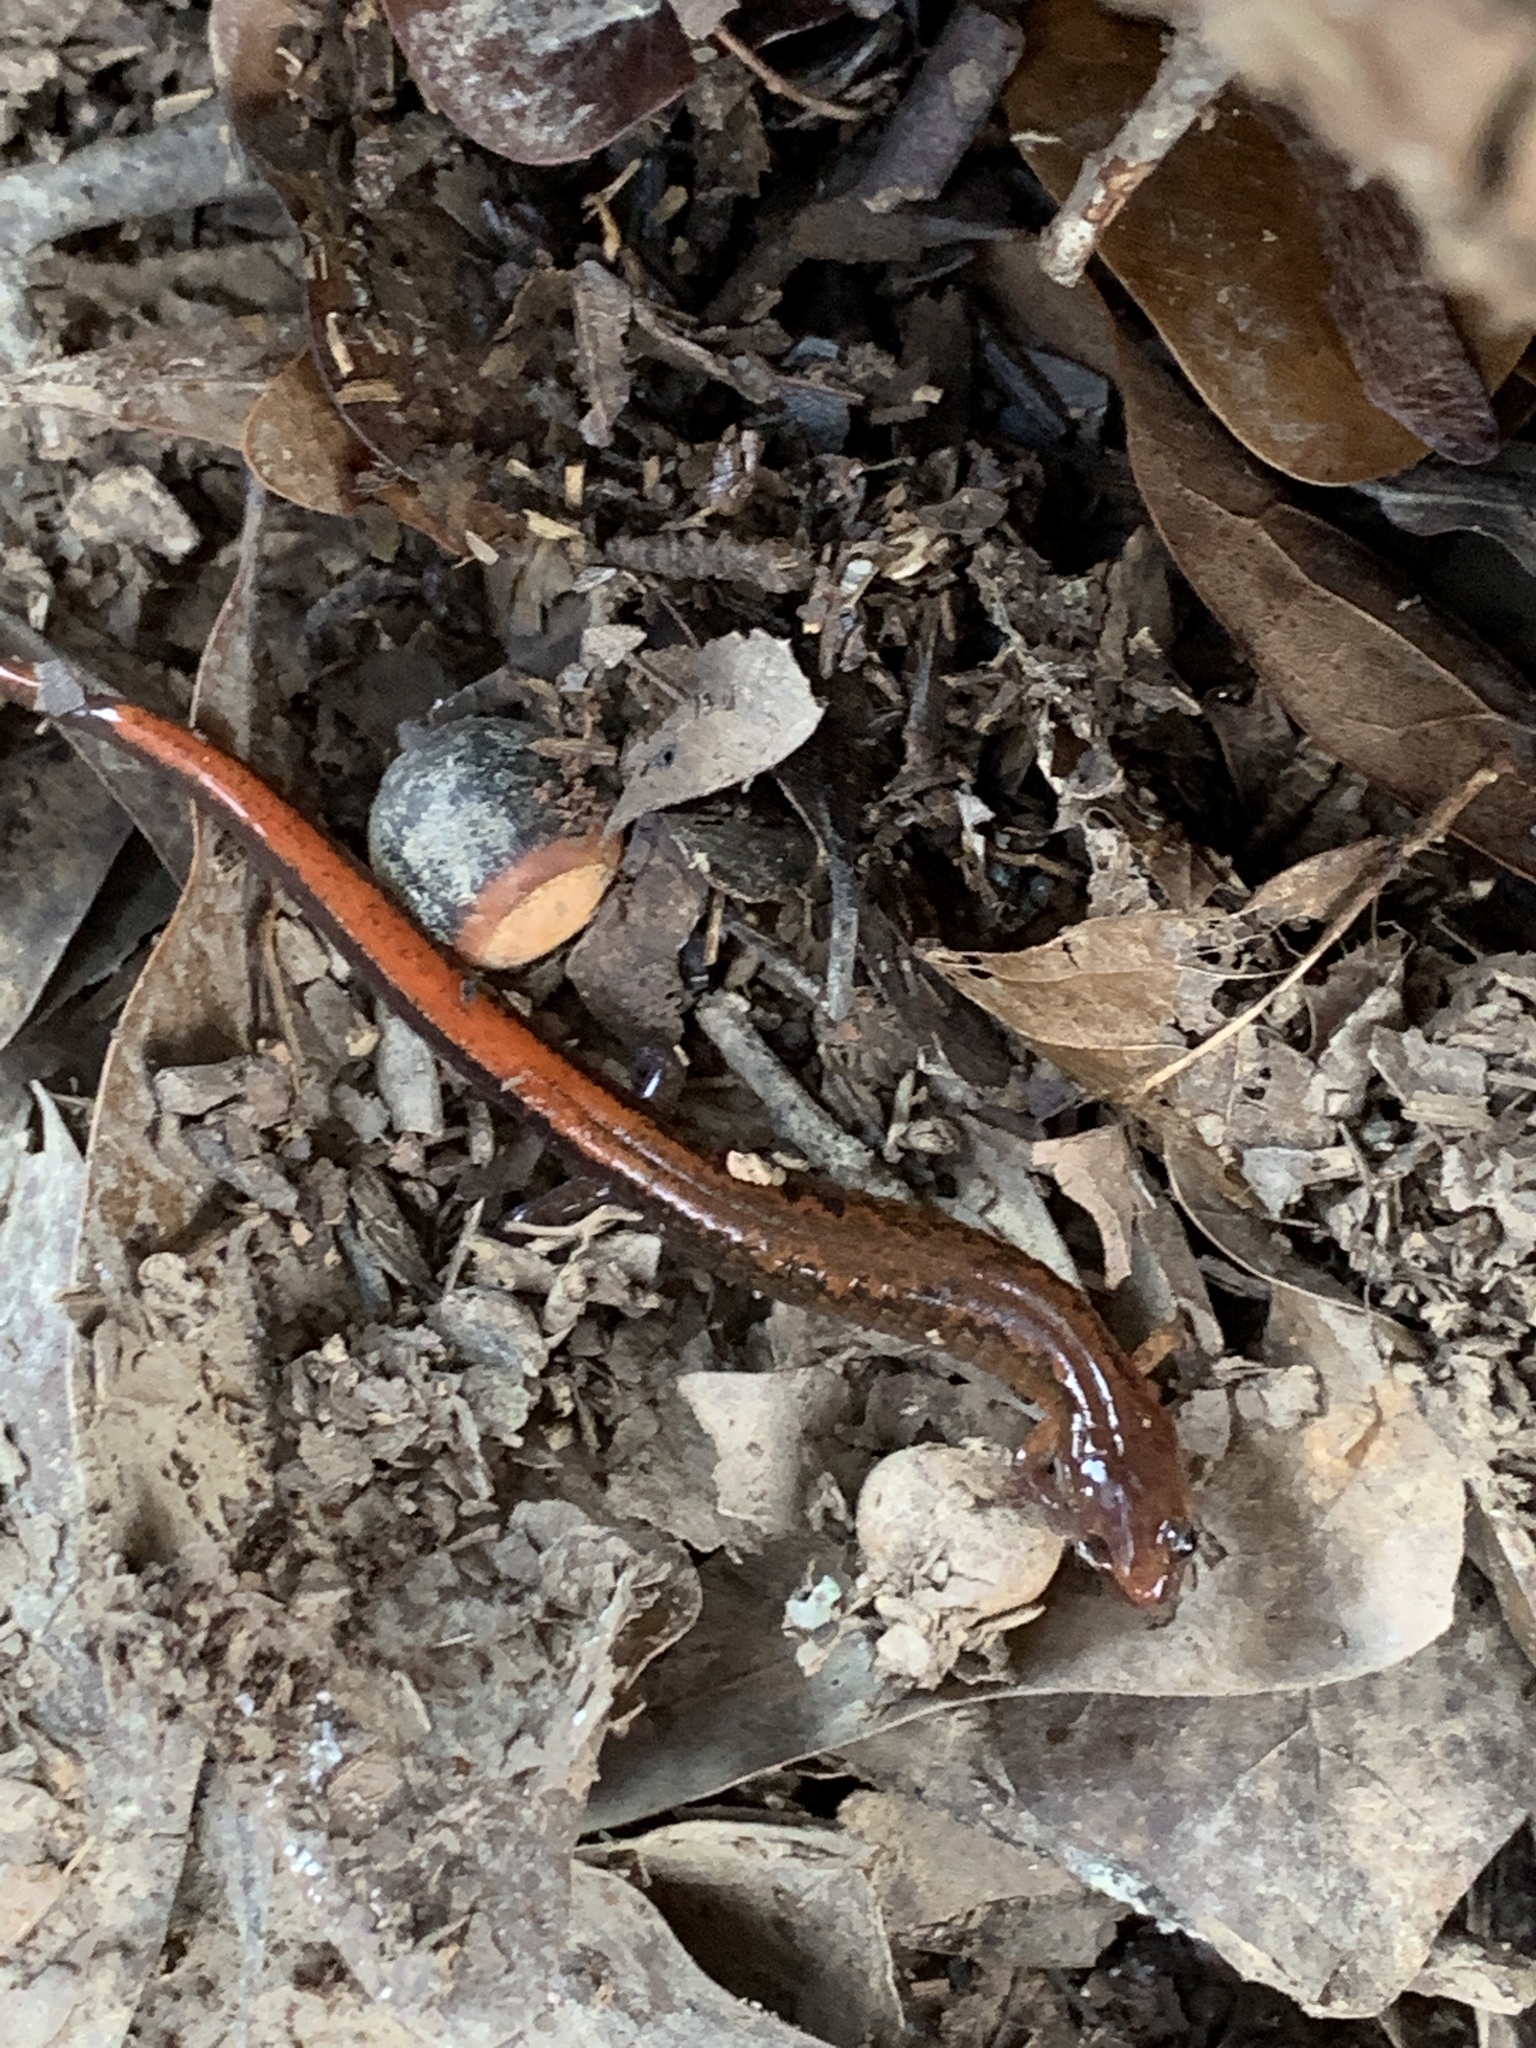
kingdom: Animalia
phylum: Chordata
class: Amphibia
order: Caudata
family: Plethodontidae
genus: Plethodon
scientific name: Plethodon ventralis
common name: Southern zigzag salamander
